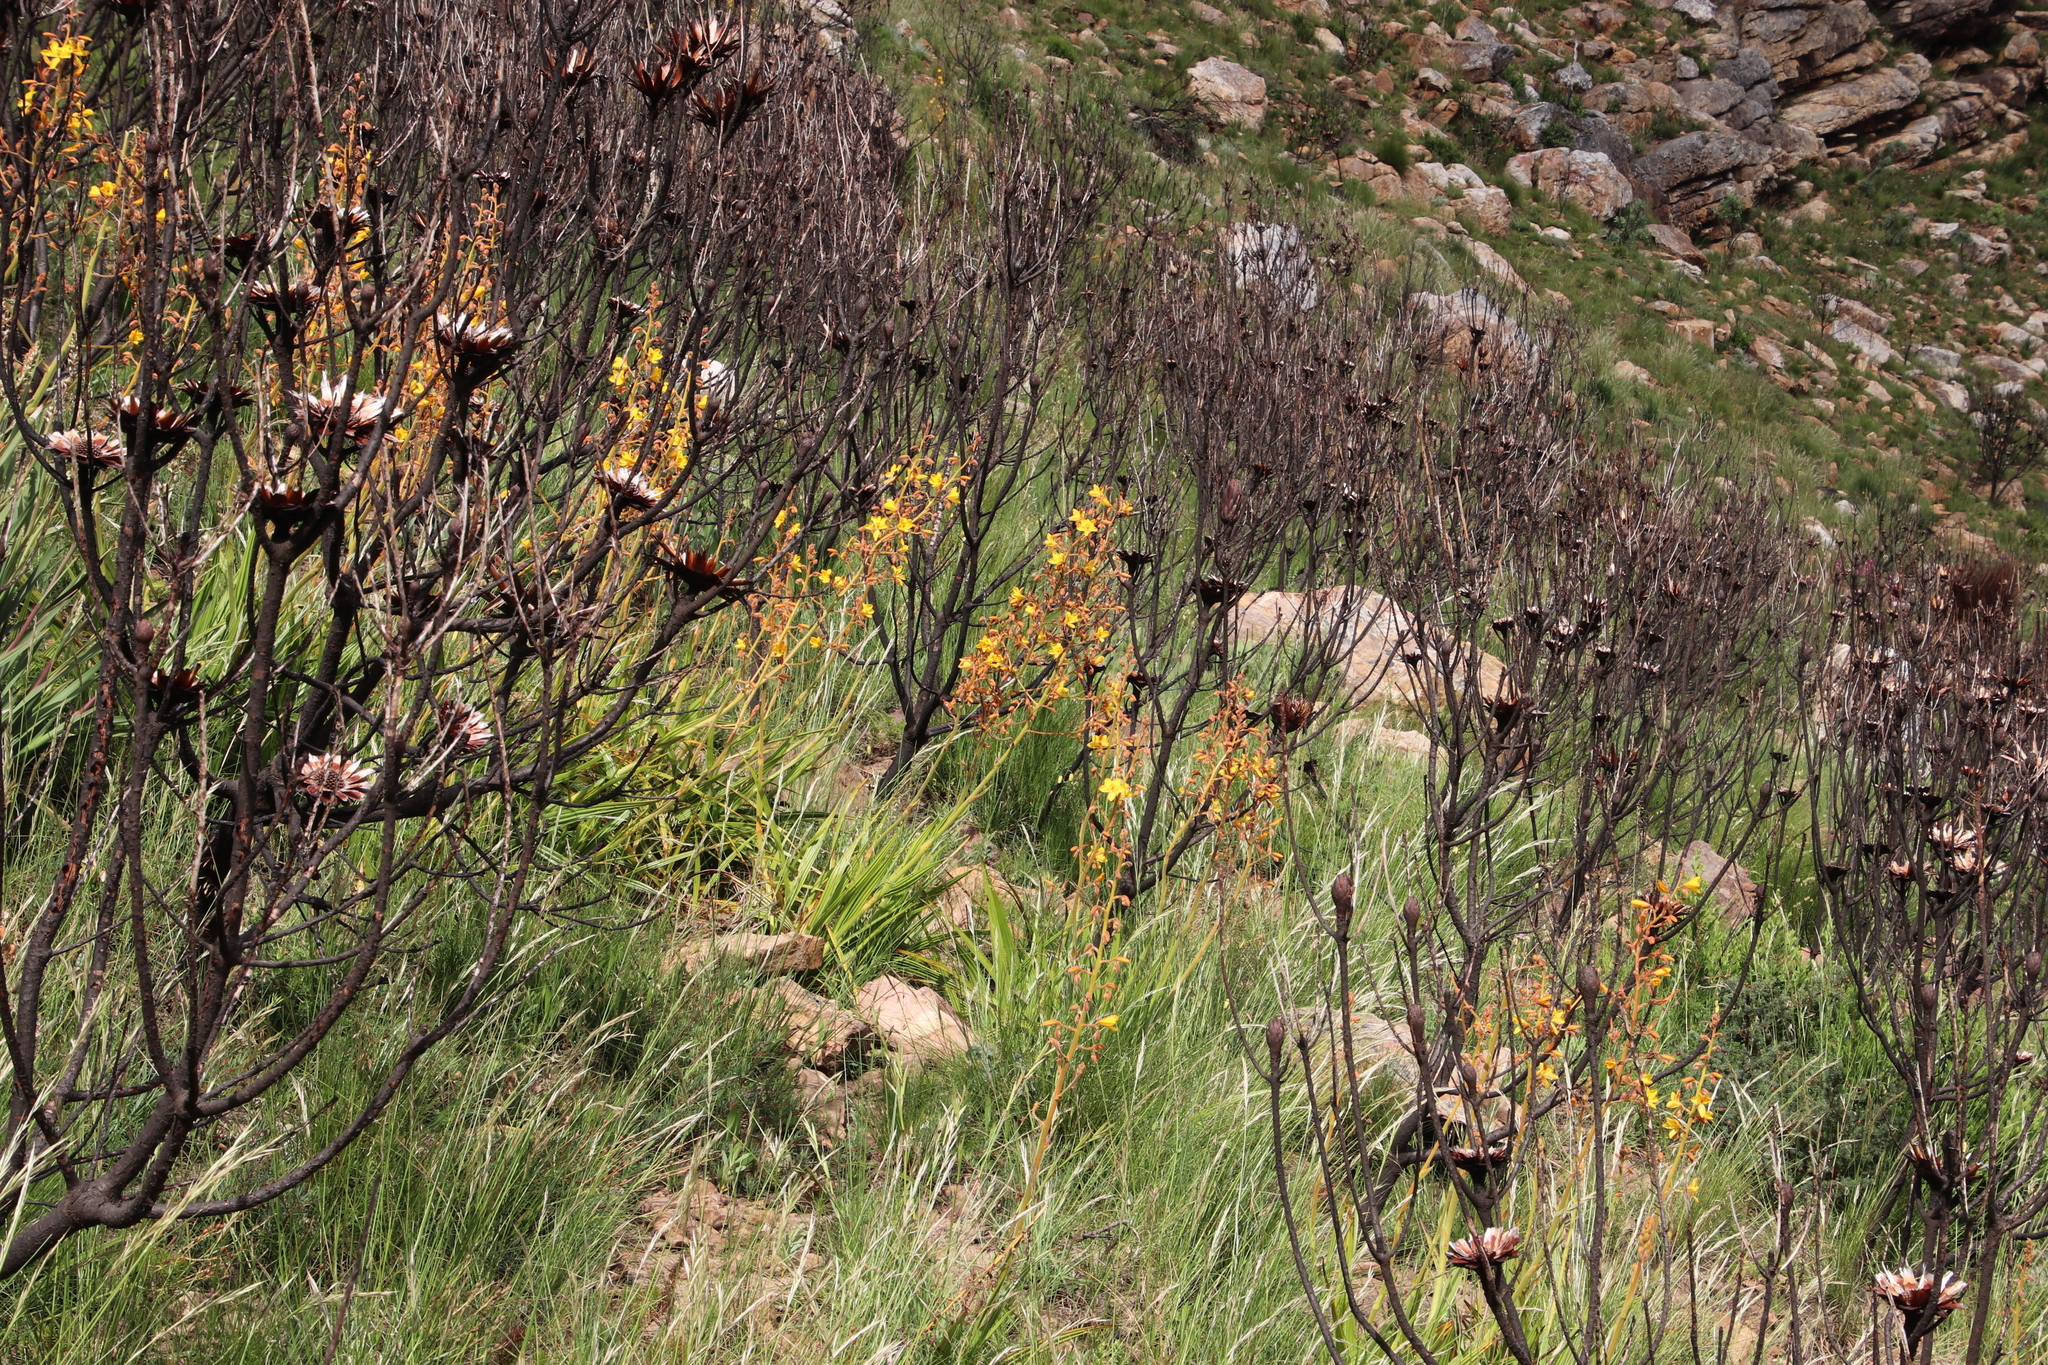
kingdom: Plantae
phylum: Tracheophyta
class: Liliopsida
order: Commelinales
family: Haemodoraceae
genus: Wachendorfia
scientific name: Wachendorfia paniculata
